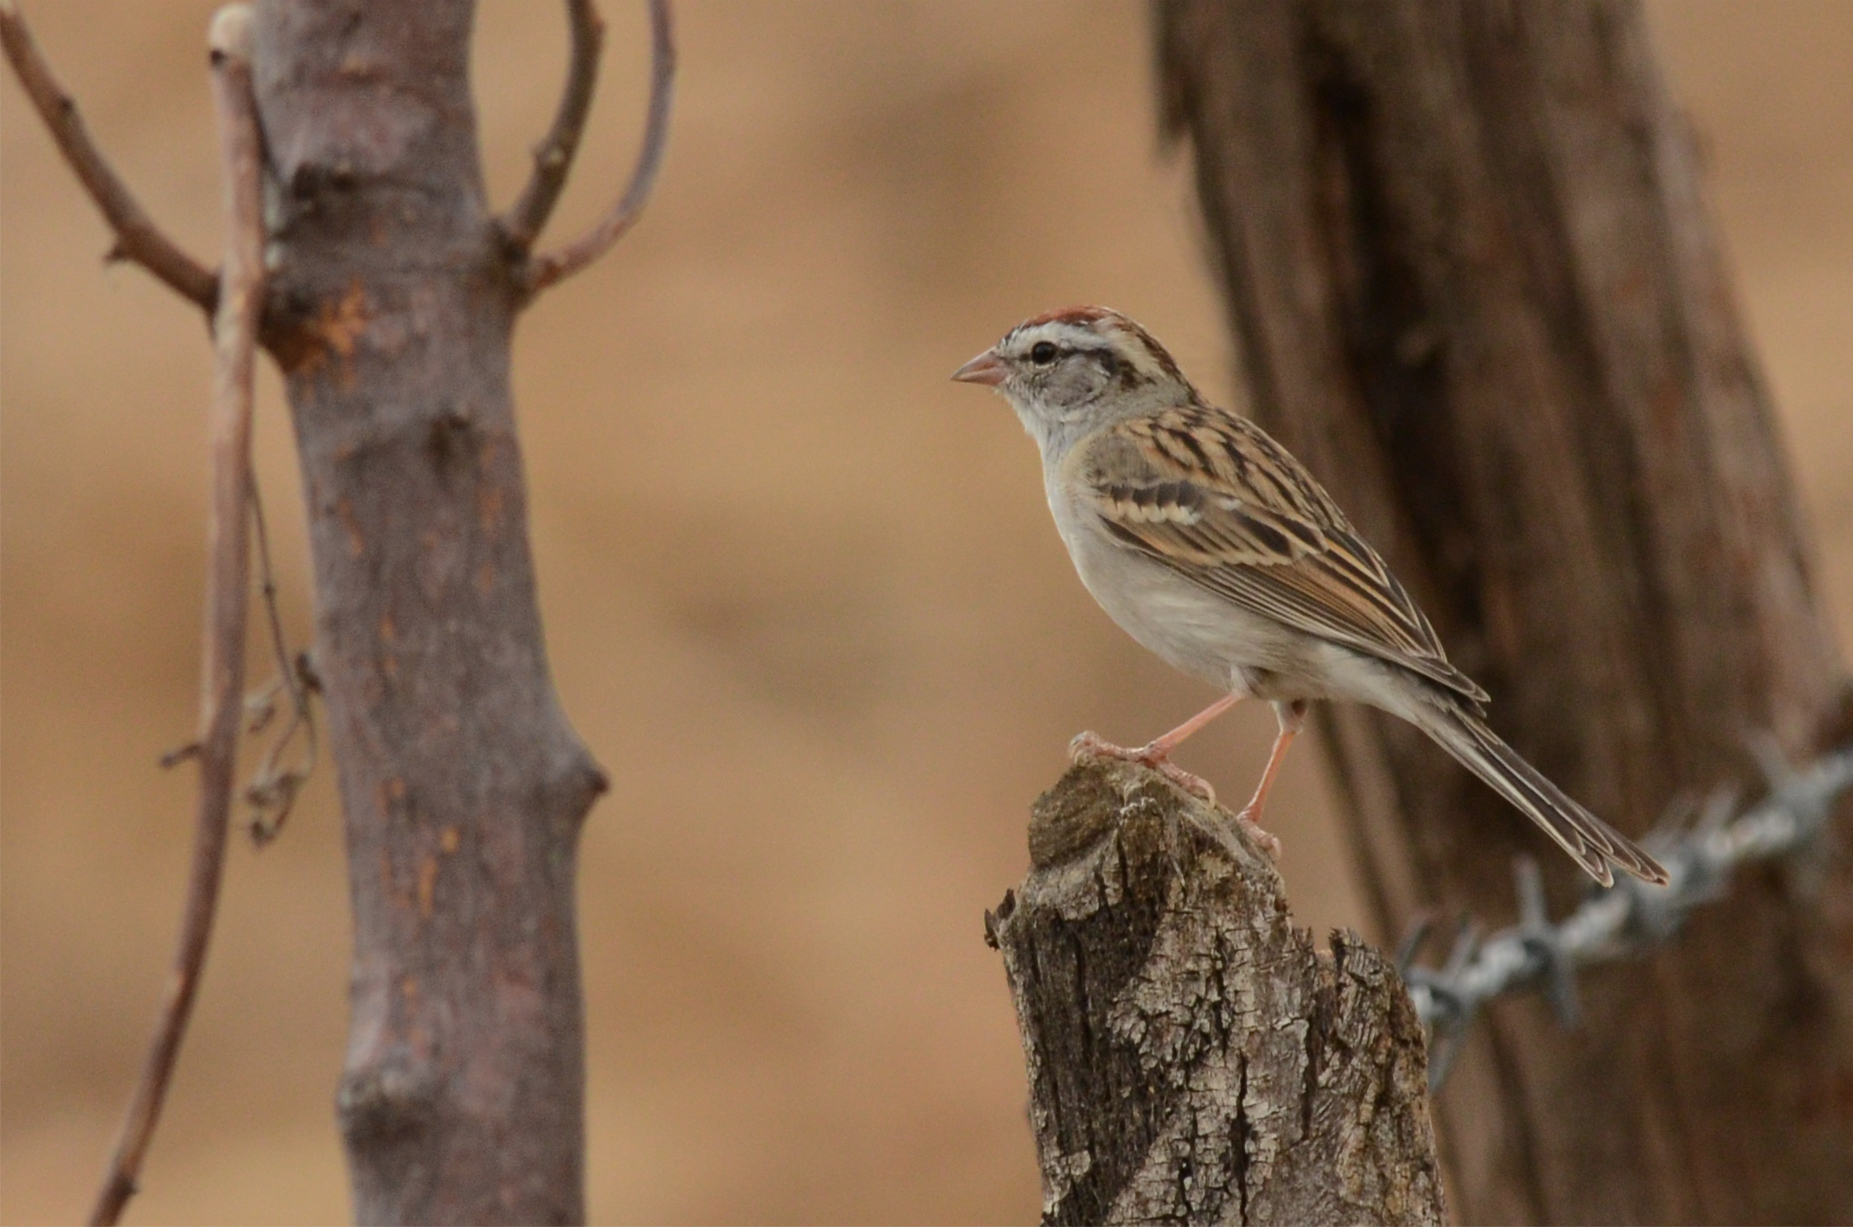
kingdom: Animalia
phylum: Chordata
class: Aves
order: Passeriformes
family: Passerellidae
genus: Spizella
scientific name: Spizella passerina
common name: Chipping sparrow
